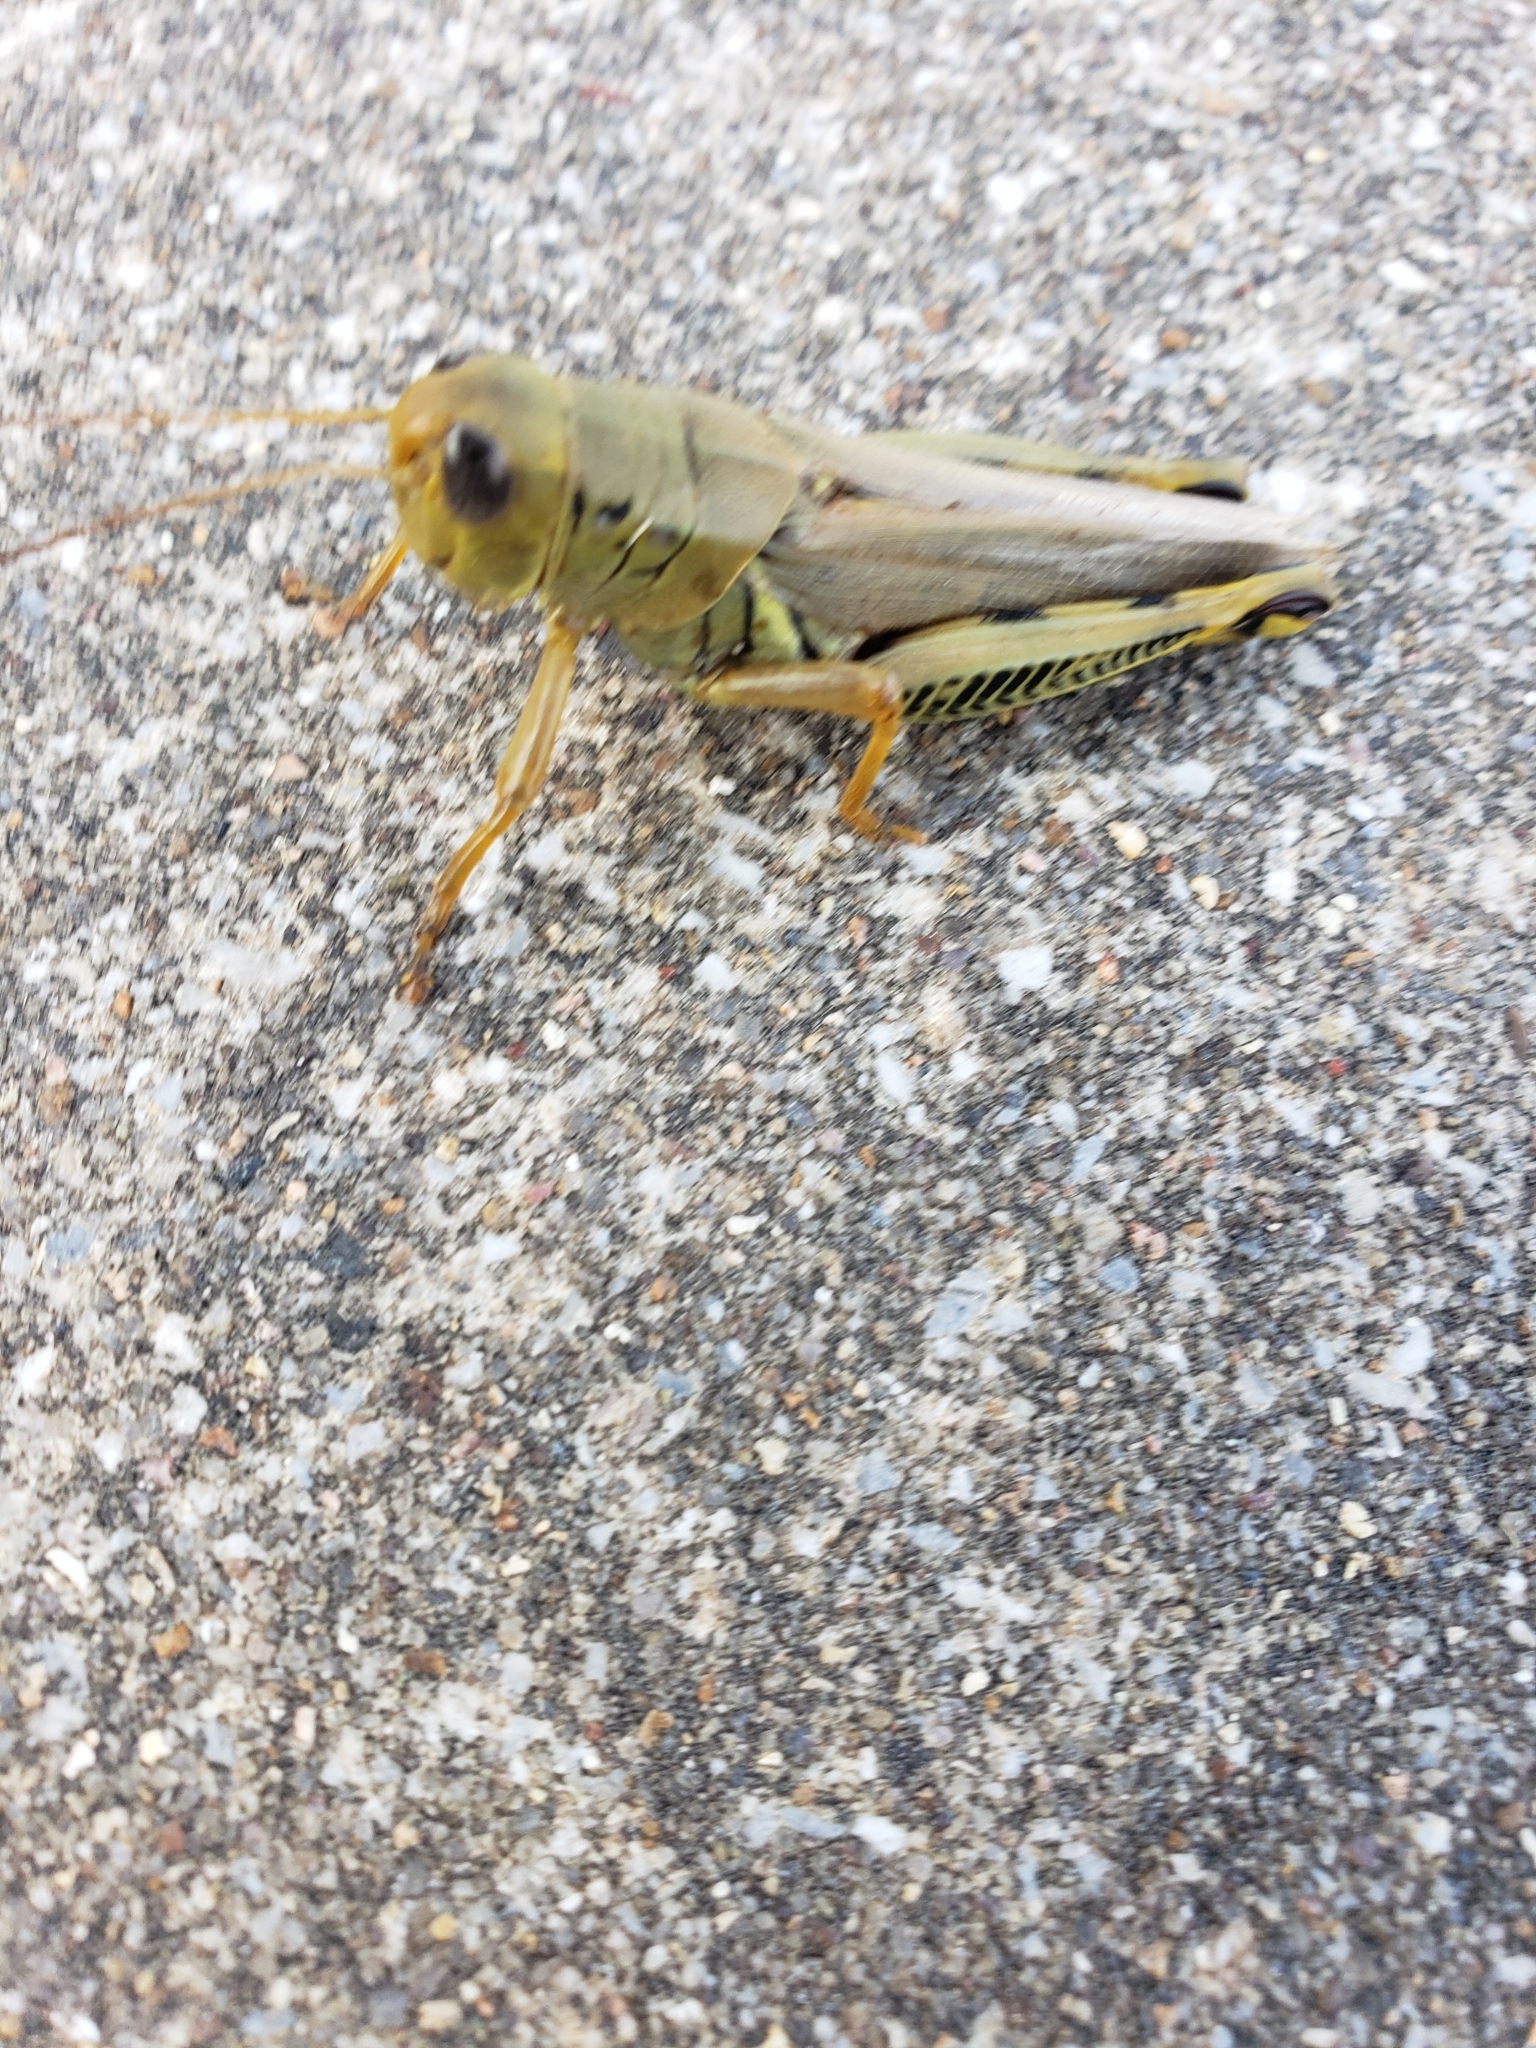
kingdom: Animalia
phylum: Arthropoda
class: Insecta
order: Orthoptera
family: Acrididae
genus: Melanoplus
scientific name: Melanoplus differentialis
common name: Differential grasshopper
